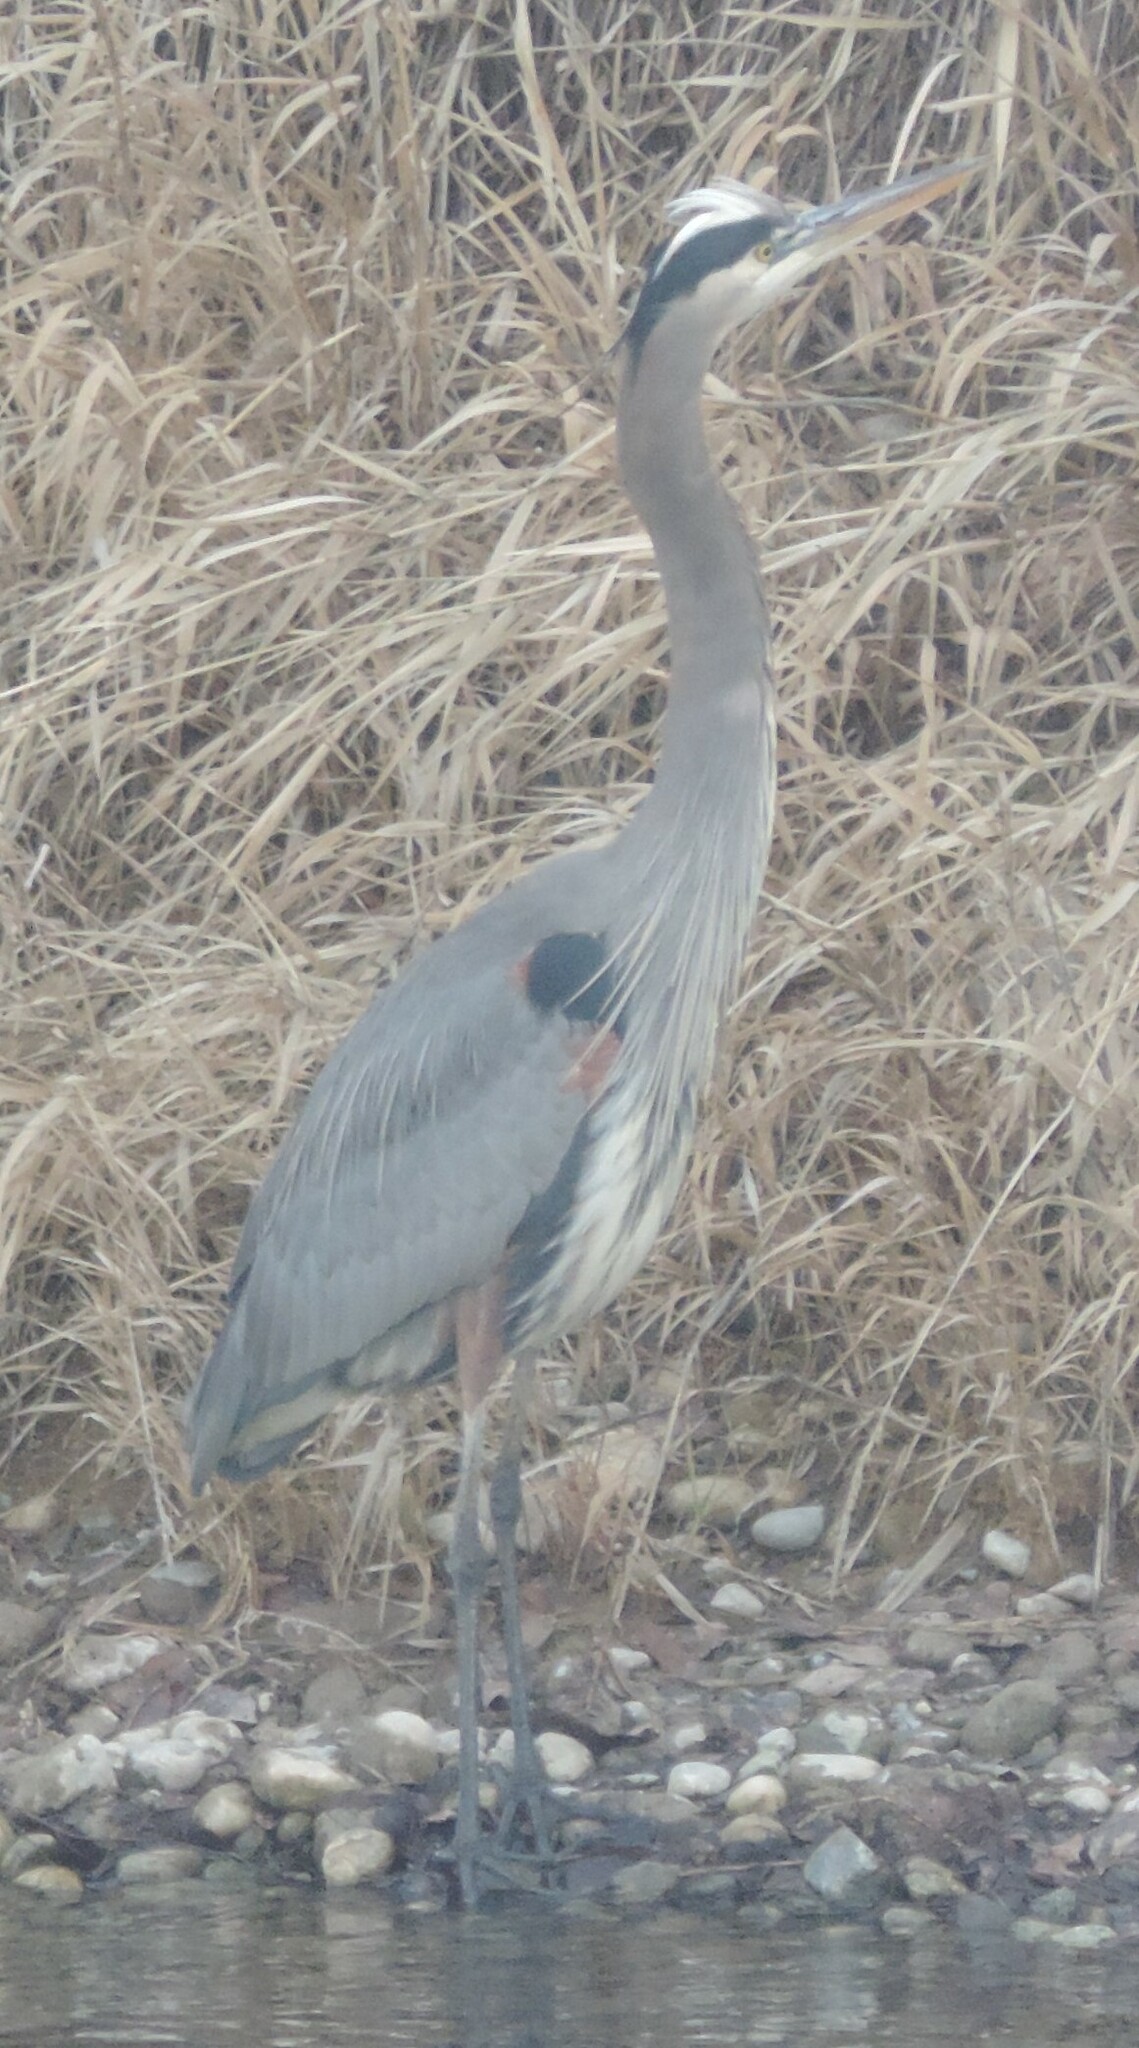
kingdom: Animalia
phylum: Chordata
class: Aves
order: Pelecaniformes
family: Ardeidae
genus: Ardea
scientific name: Ardea herodias
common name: Great blue heron
